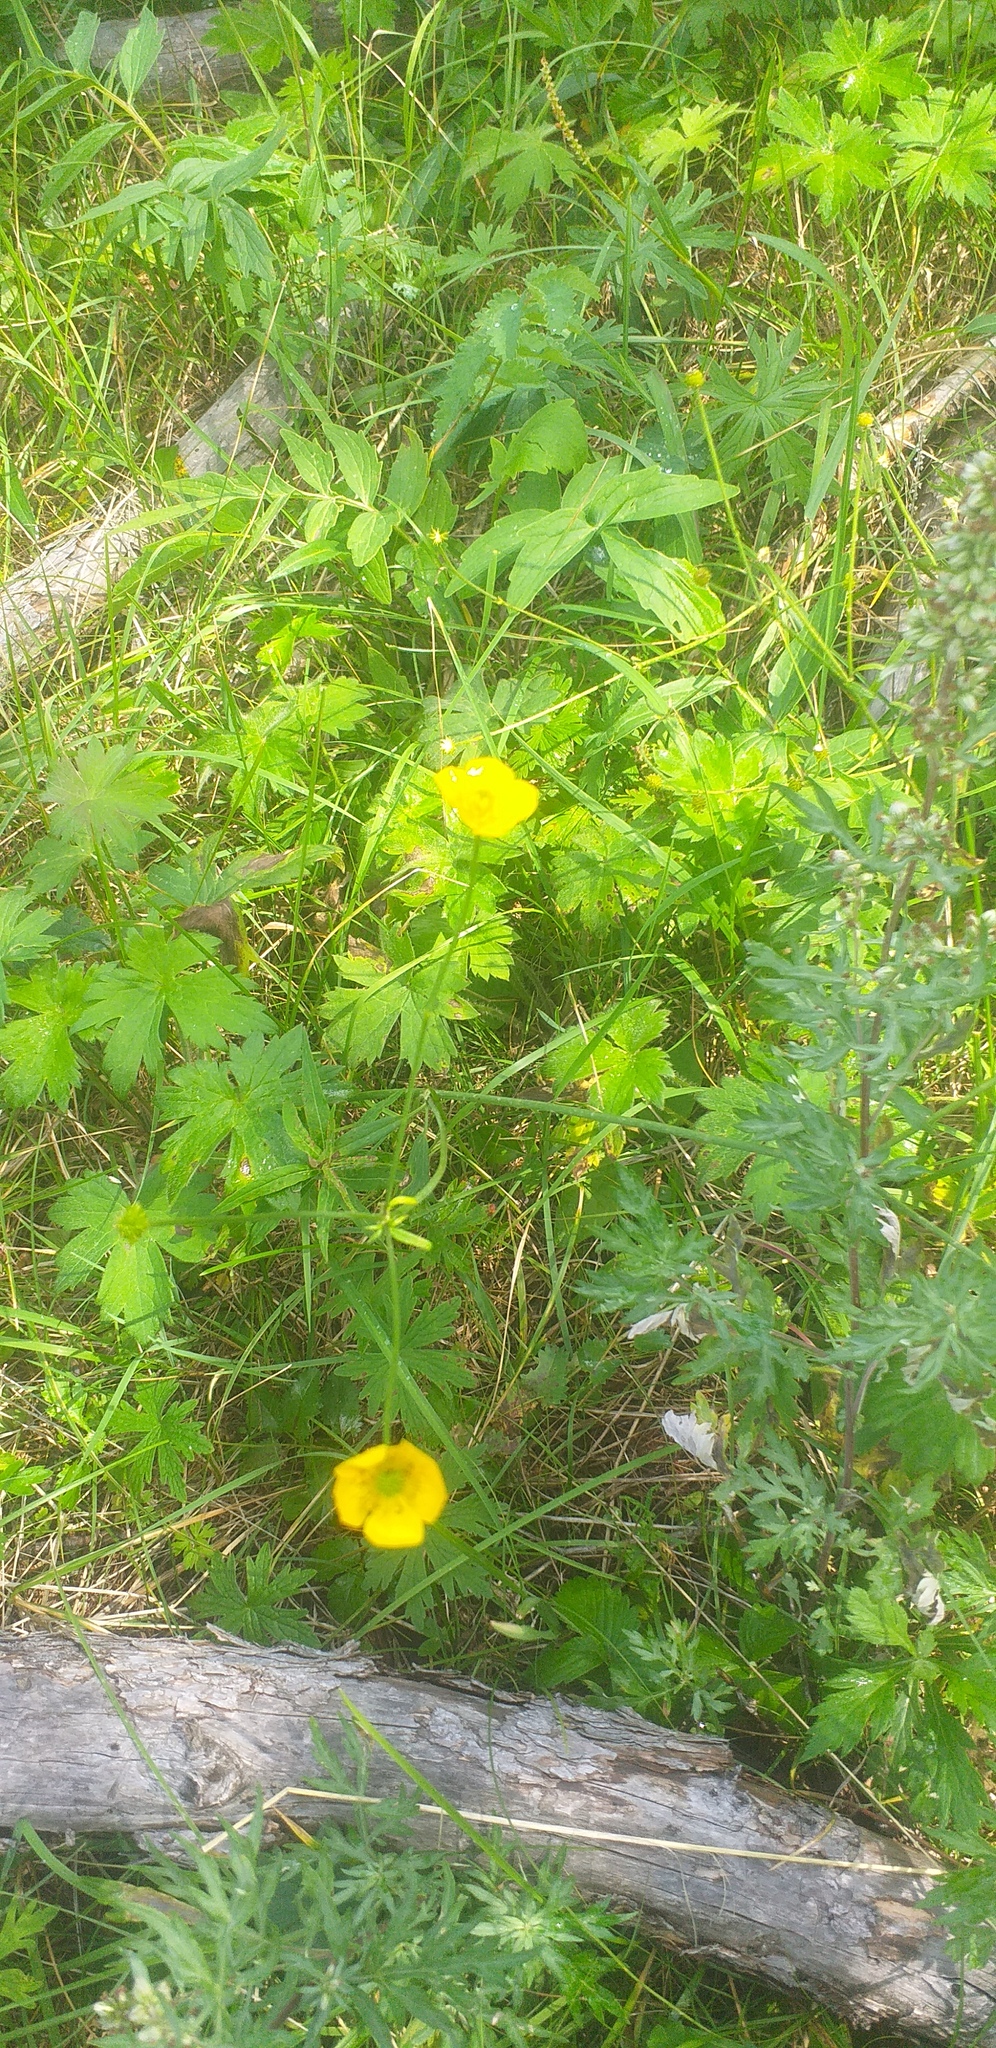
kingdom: Plantae
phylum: Tracheophyta
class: Magnoliopsida
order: Ranunculales
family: Ranunculaceae
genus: Ranunculus
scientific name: Ranunculus japonicus
